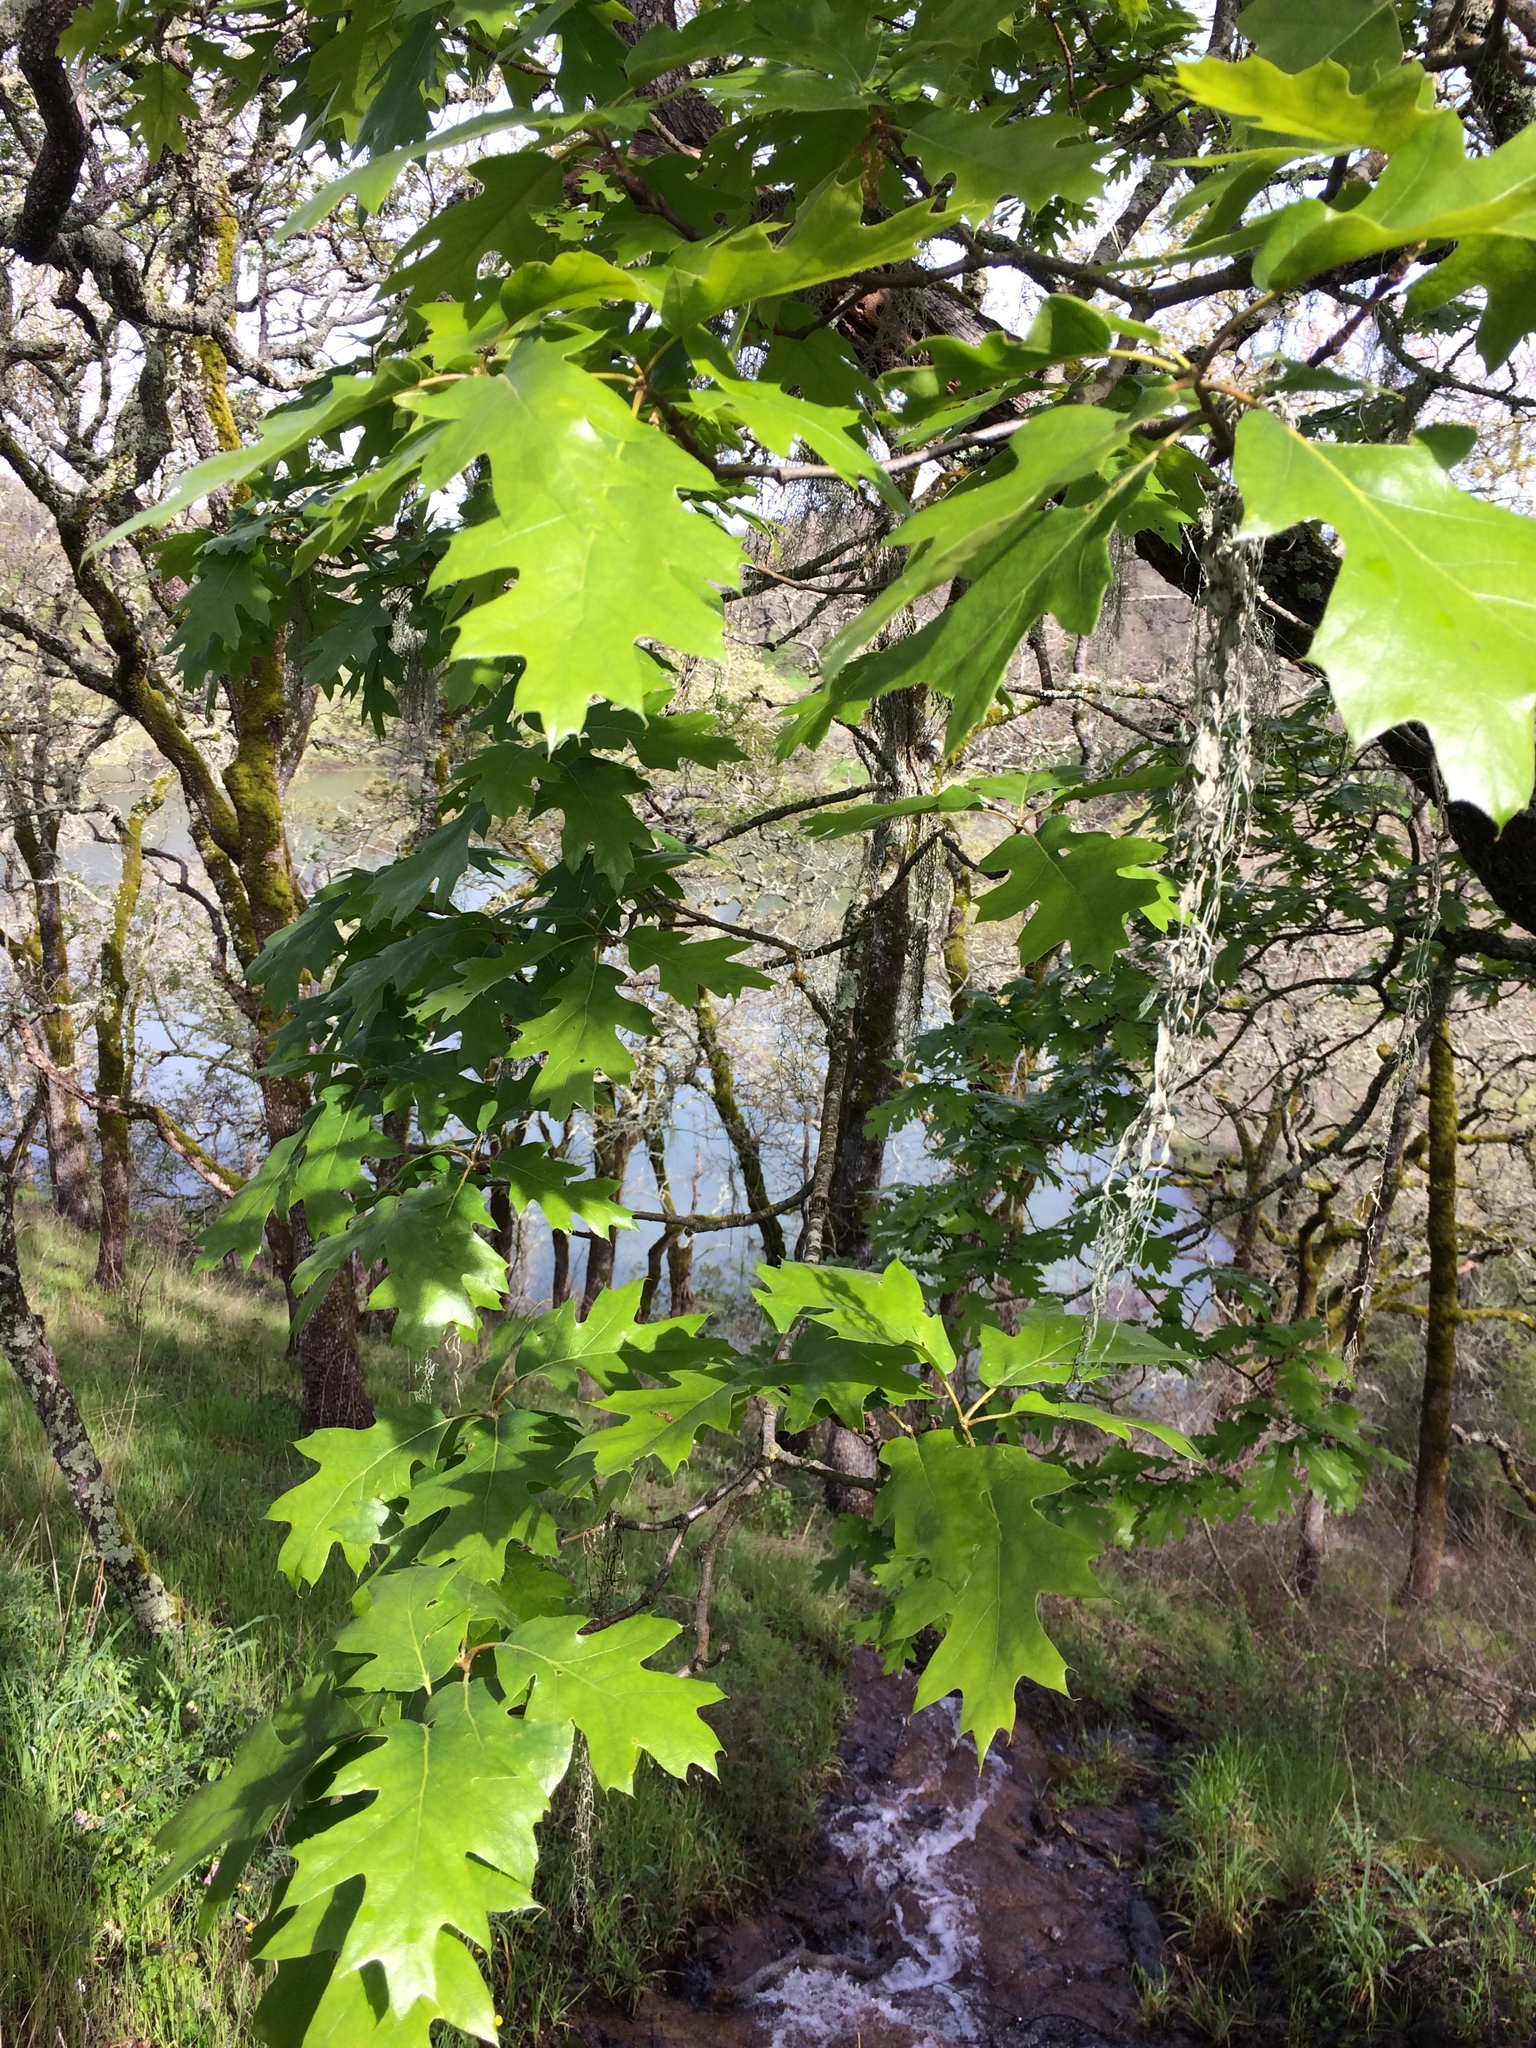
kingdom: Plantae
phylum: Tracheophyta
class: Magnoliopsida
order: Fagales
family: Fagaceae
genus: Quercus
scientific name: Quercus kelloggii
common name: California black oak
